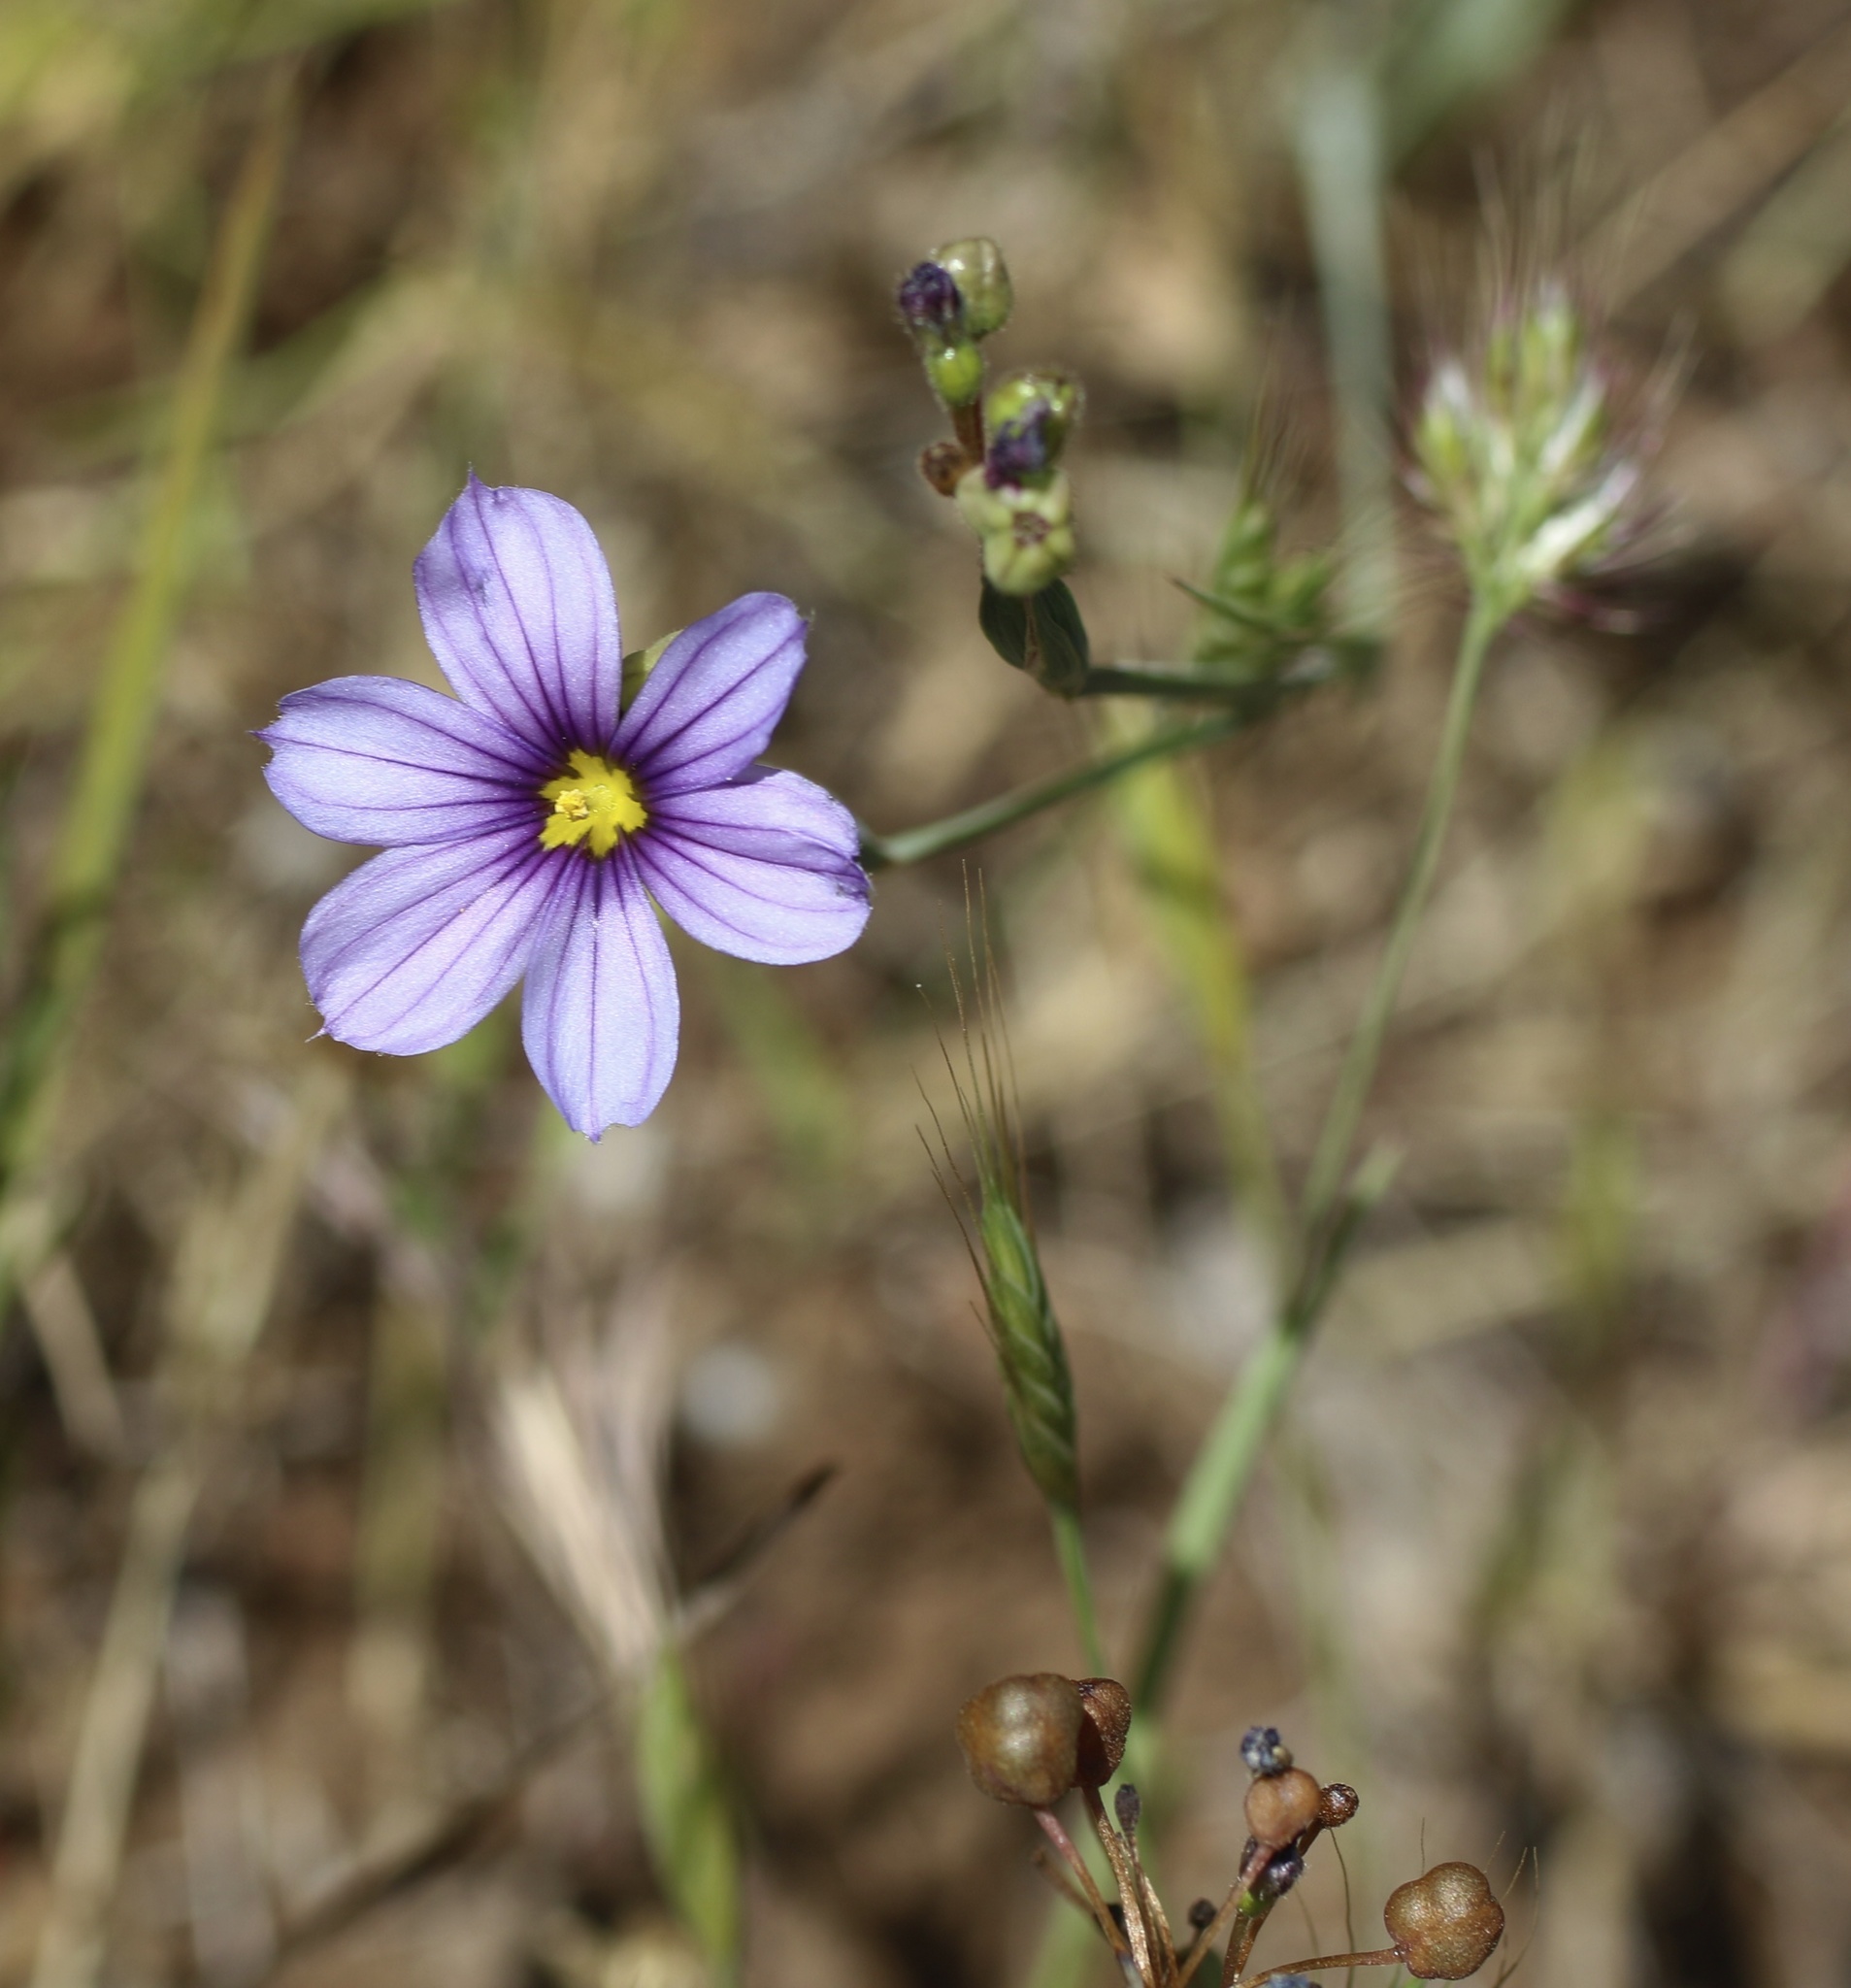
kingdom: Plantae
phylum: Tracheophyta
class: Liliopsida
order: Asparagales
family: Iridaceae
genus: Sisyrinchium
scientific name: Sisyrinchium bellum
